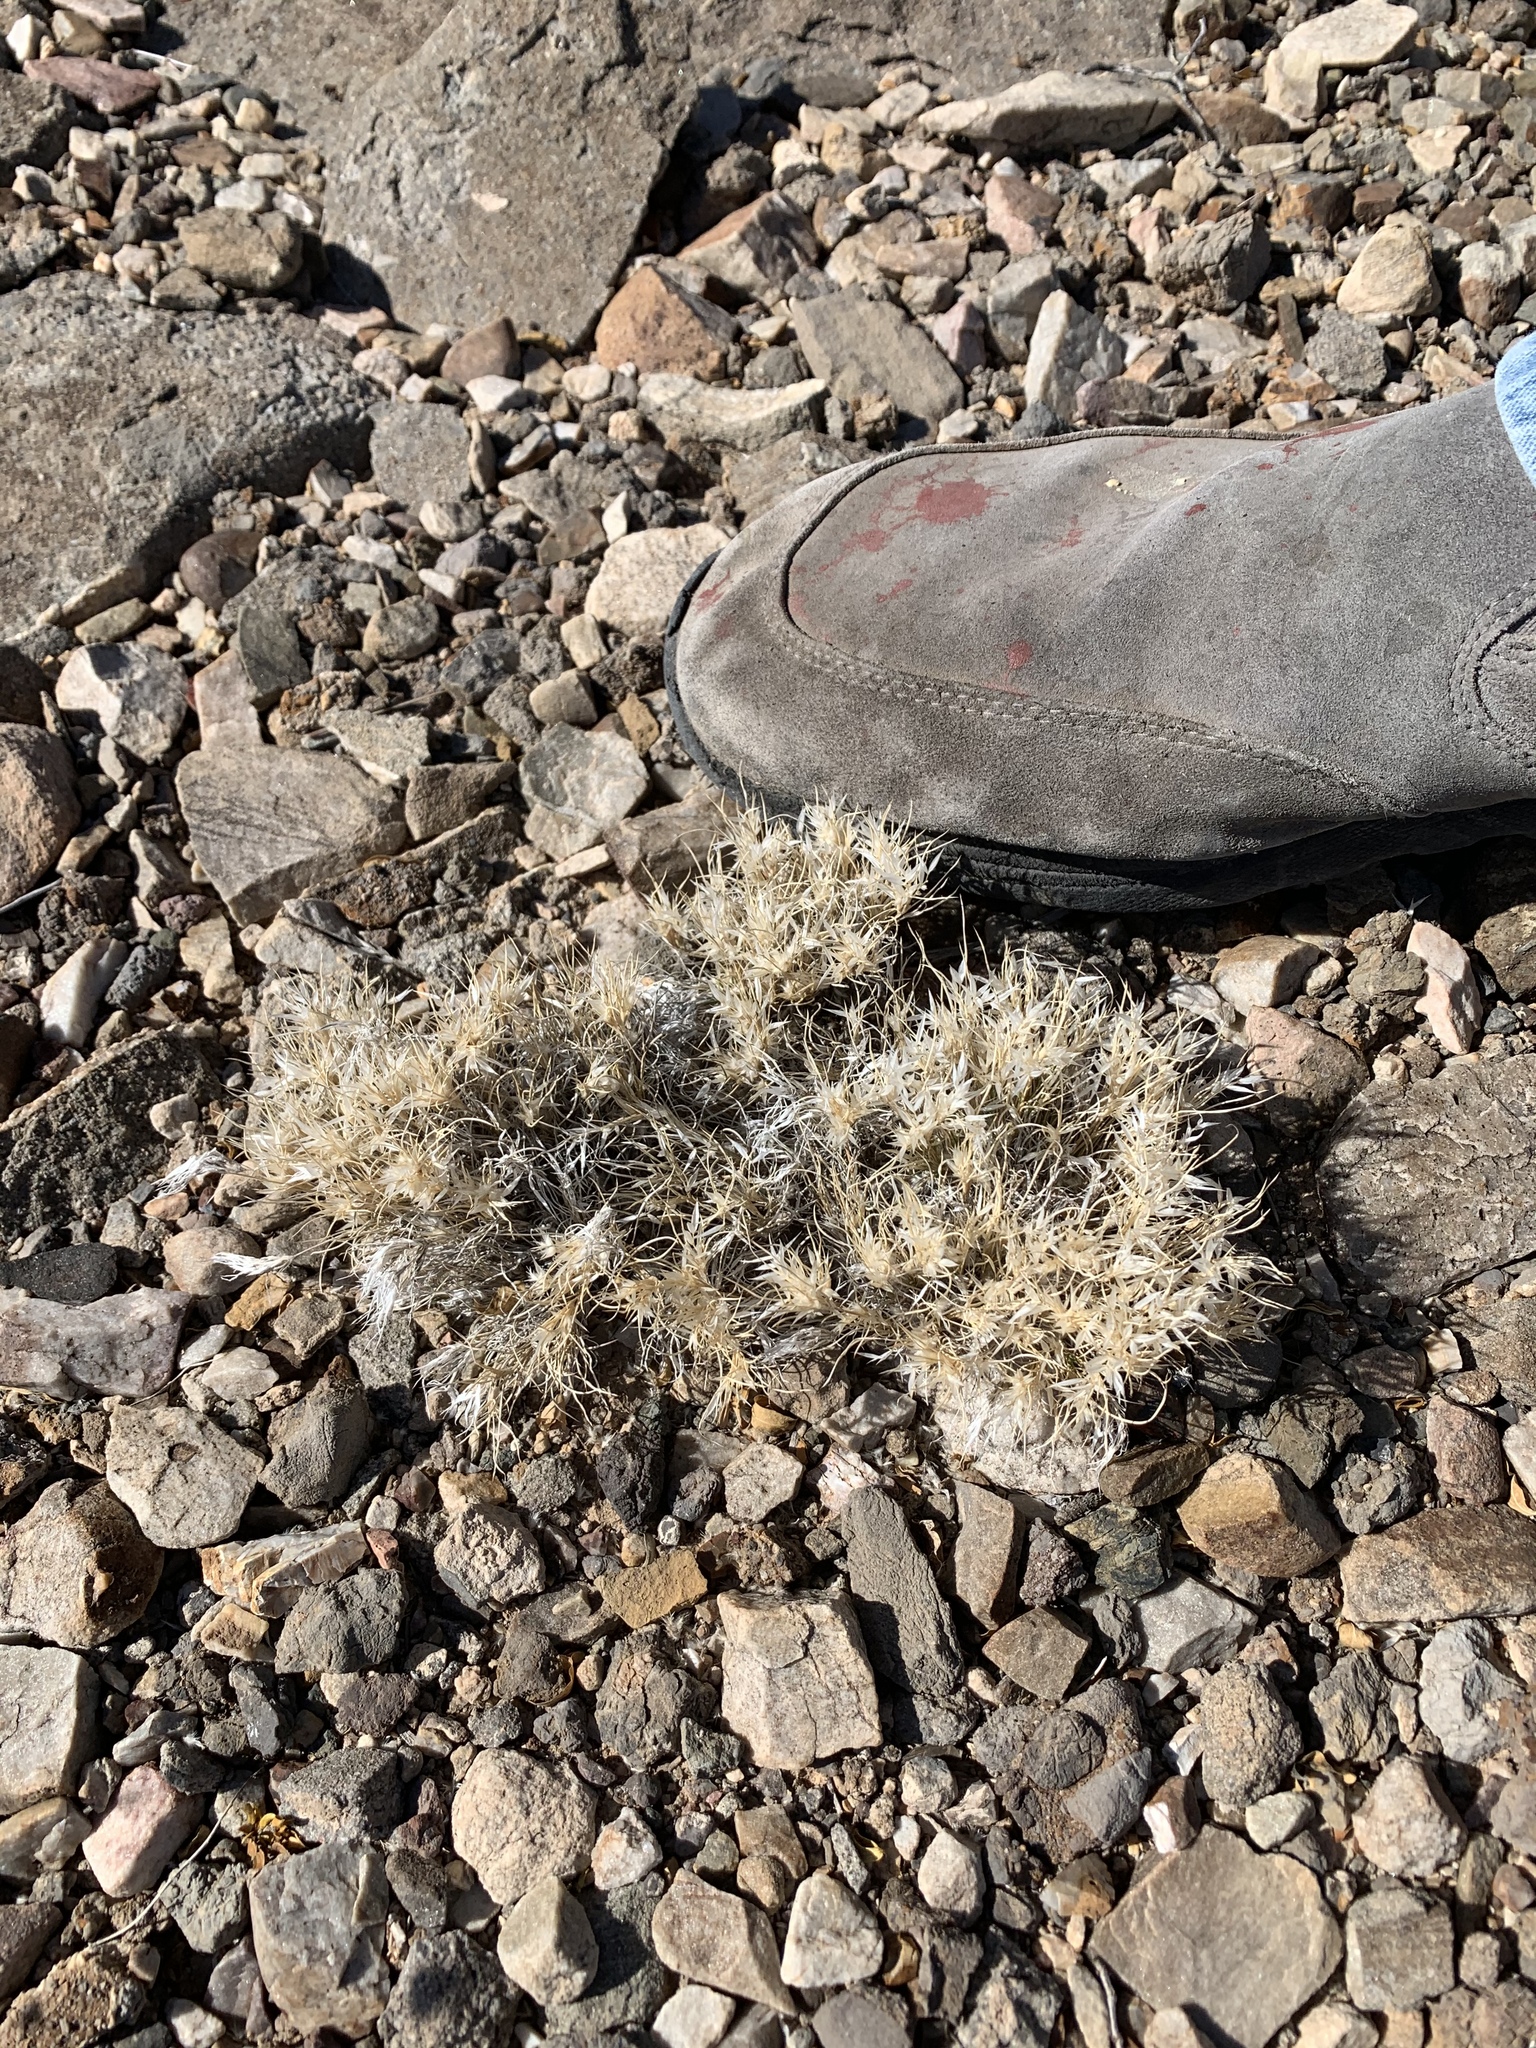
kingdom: Plantae
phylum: Tracheophyta
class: Liliopsida
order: Poales
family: Poaceae
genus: Dasyochloa
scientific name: Dasyochloa pulchella
